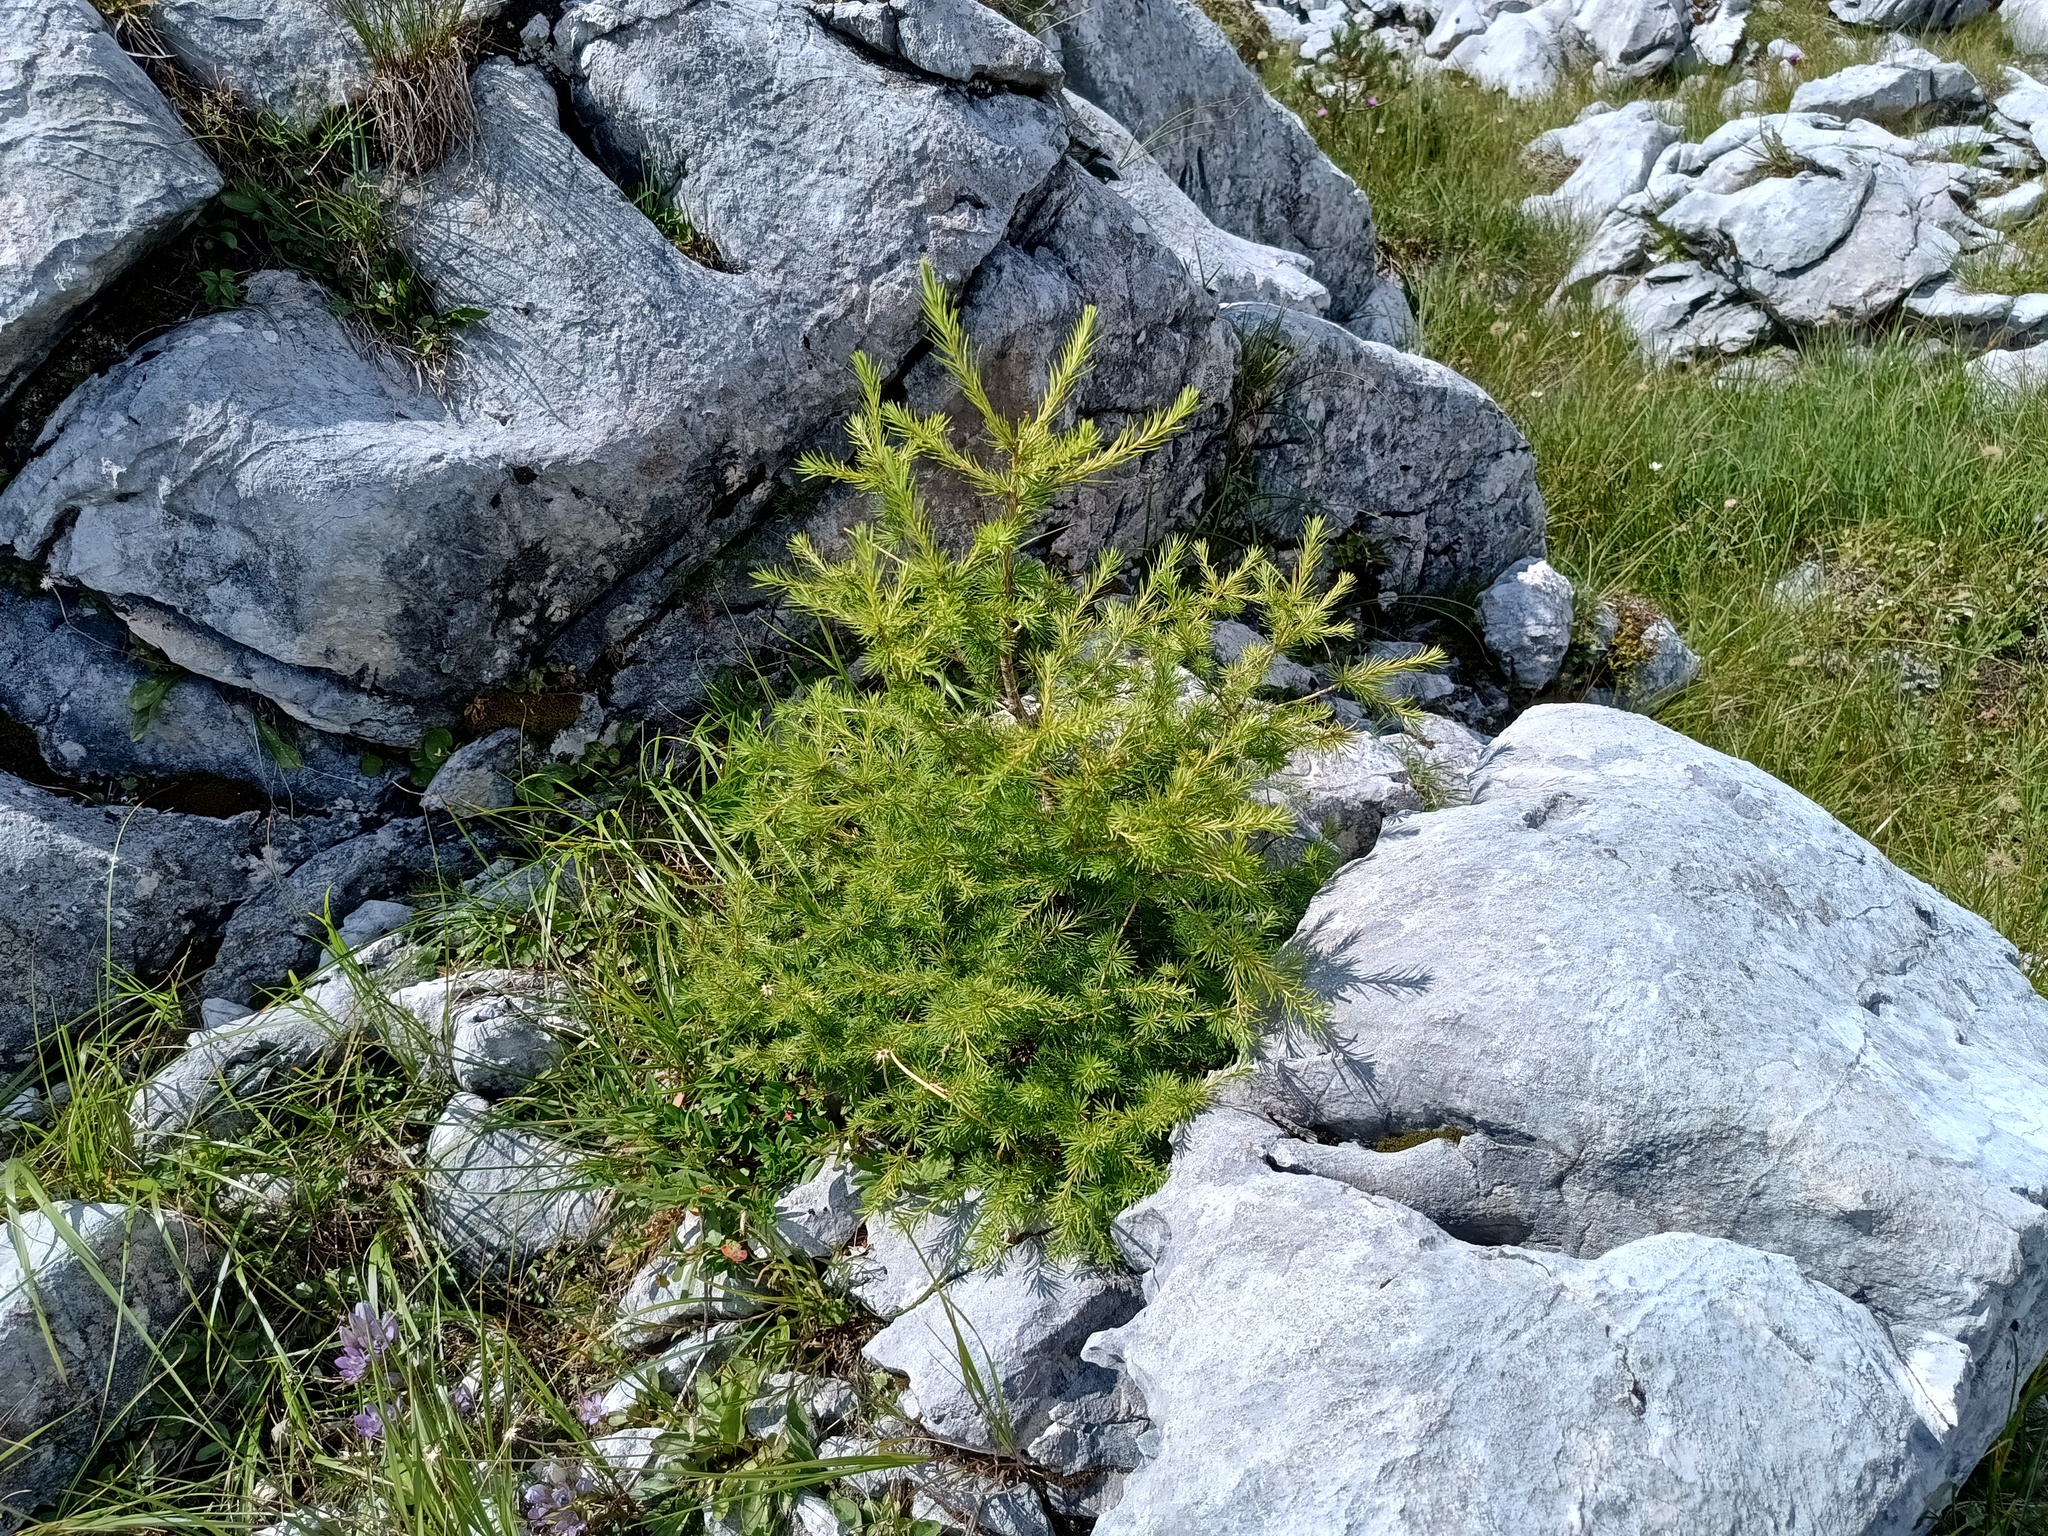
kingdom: Plantae
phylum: Tracheophyta
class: Pinopsida
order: Pinales
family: Pinaceae
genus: Larix
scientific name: Larix decidua
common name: European larch
